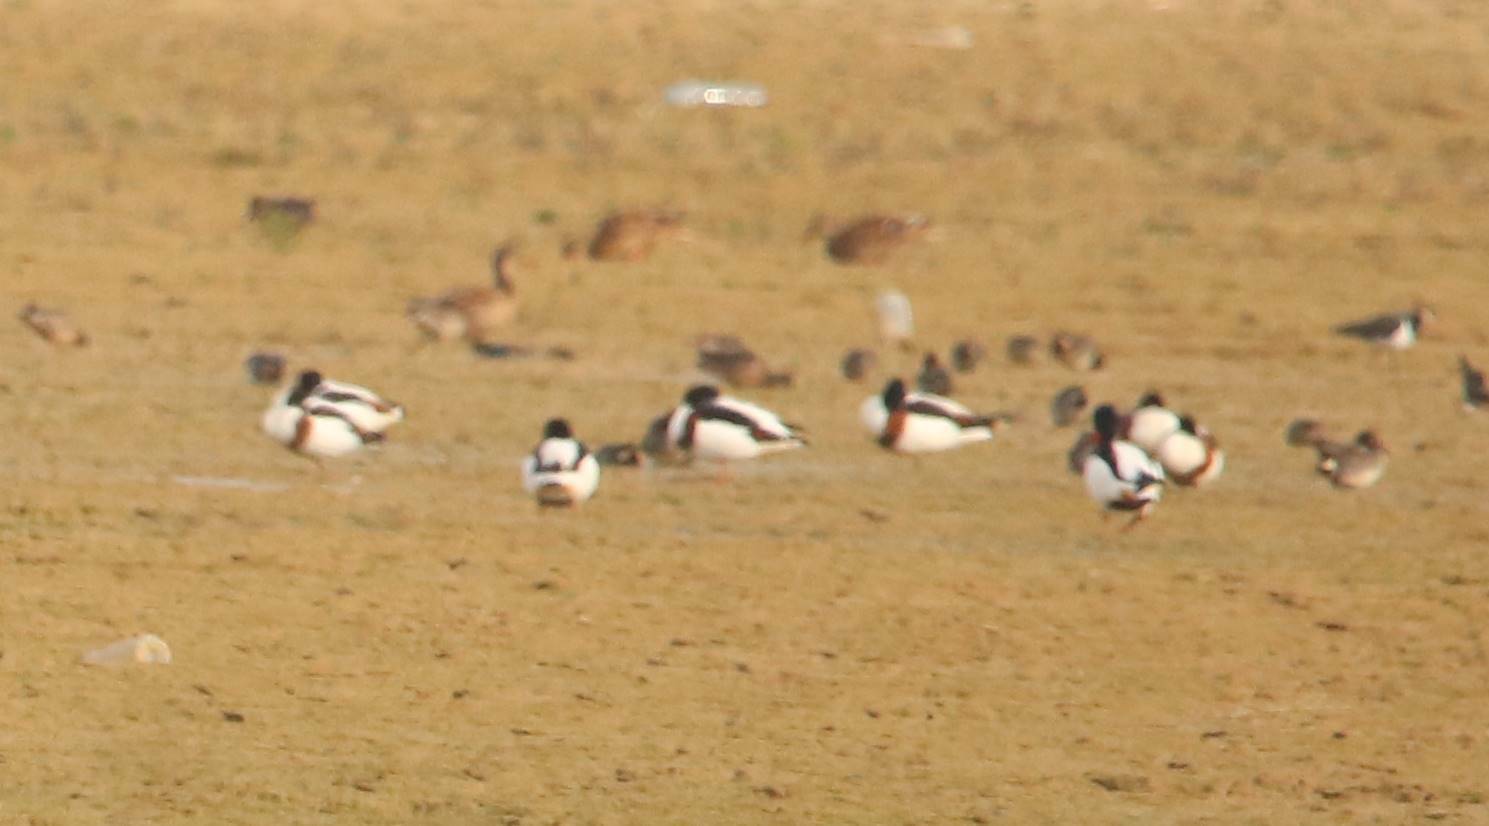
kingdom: Animalia
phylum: Chordata
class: Aves
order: Anseriformes
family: Anatidae
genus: Tadorna
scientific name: Tadorna tadorna
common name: Common shelduck
